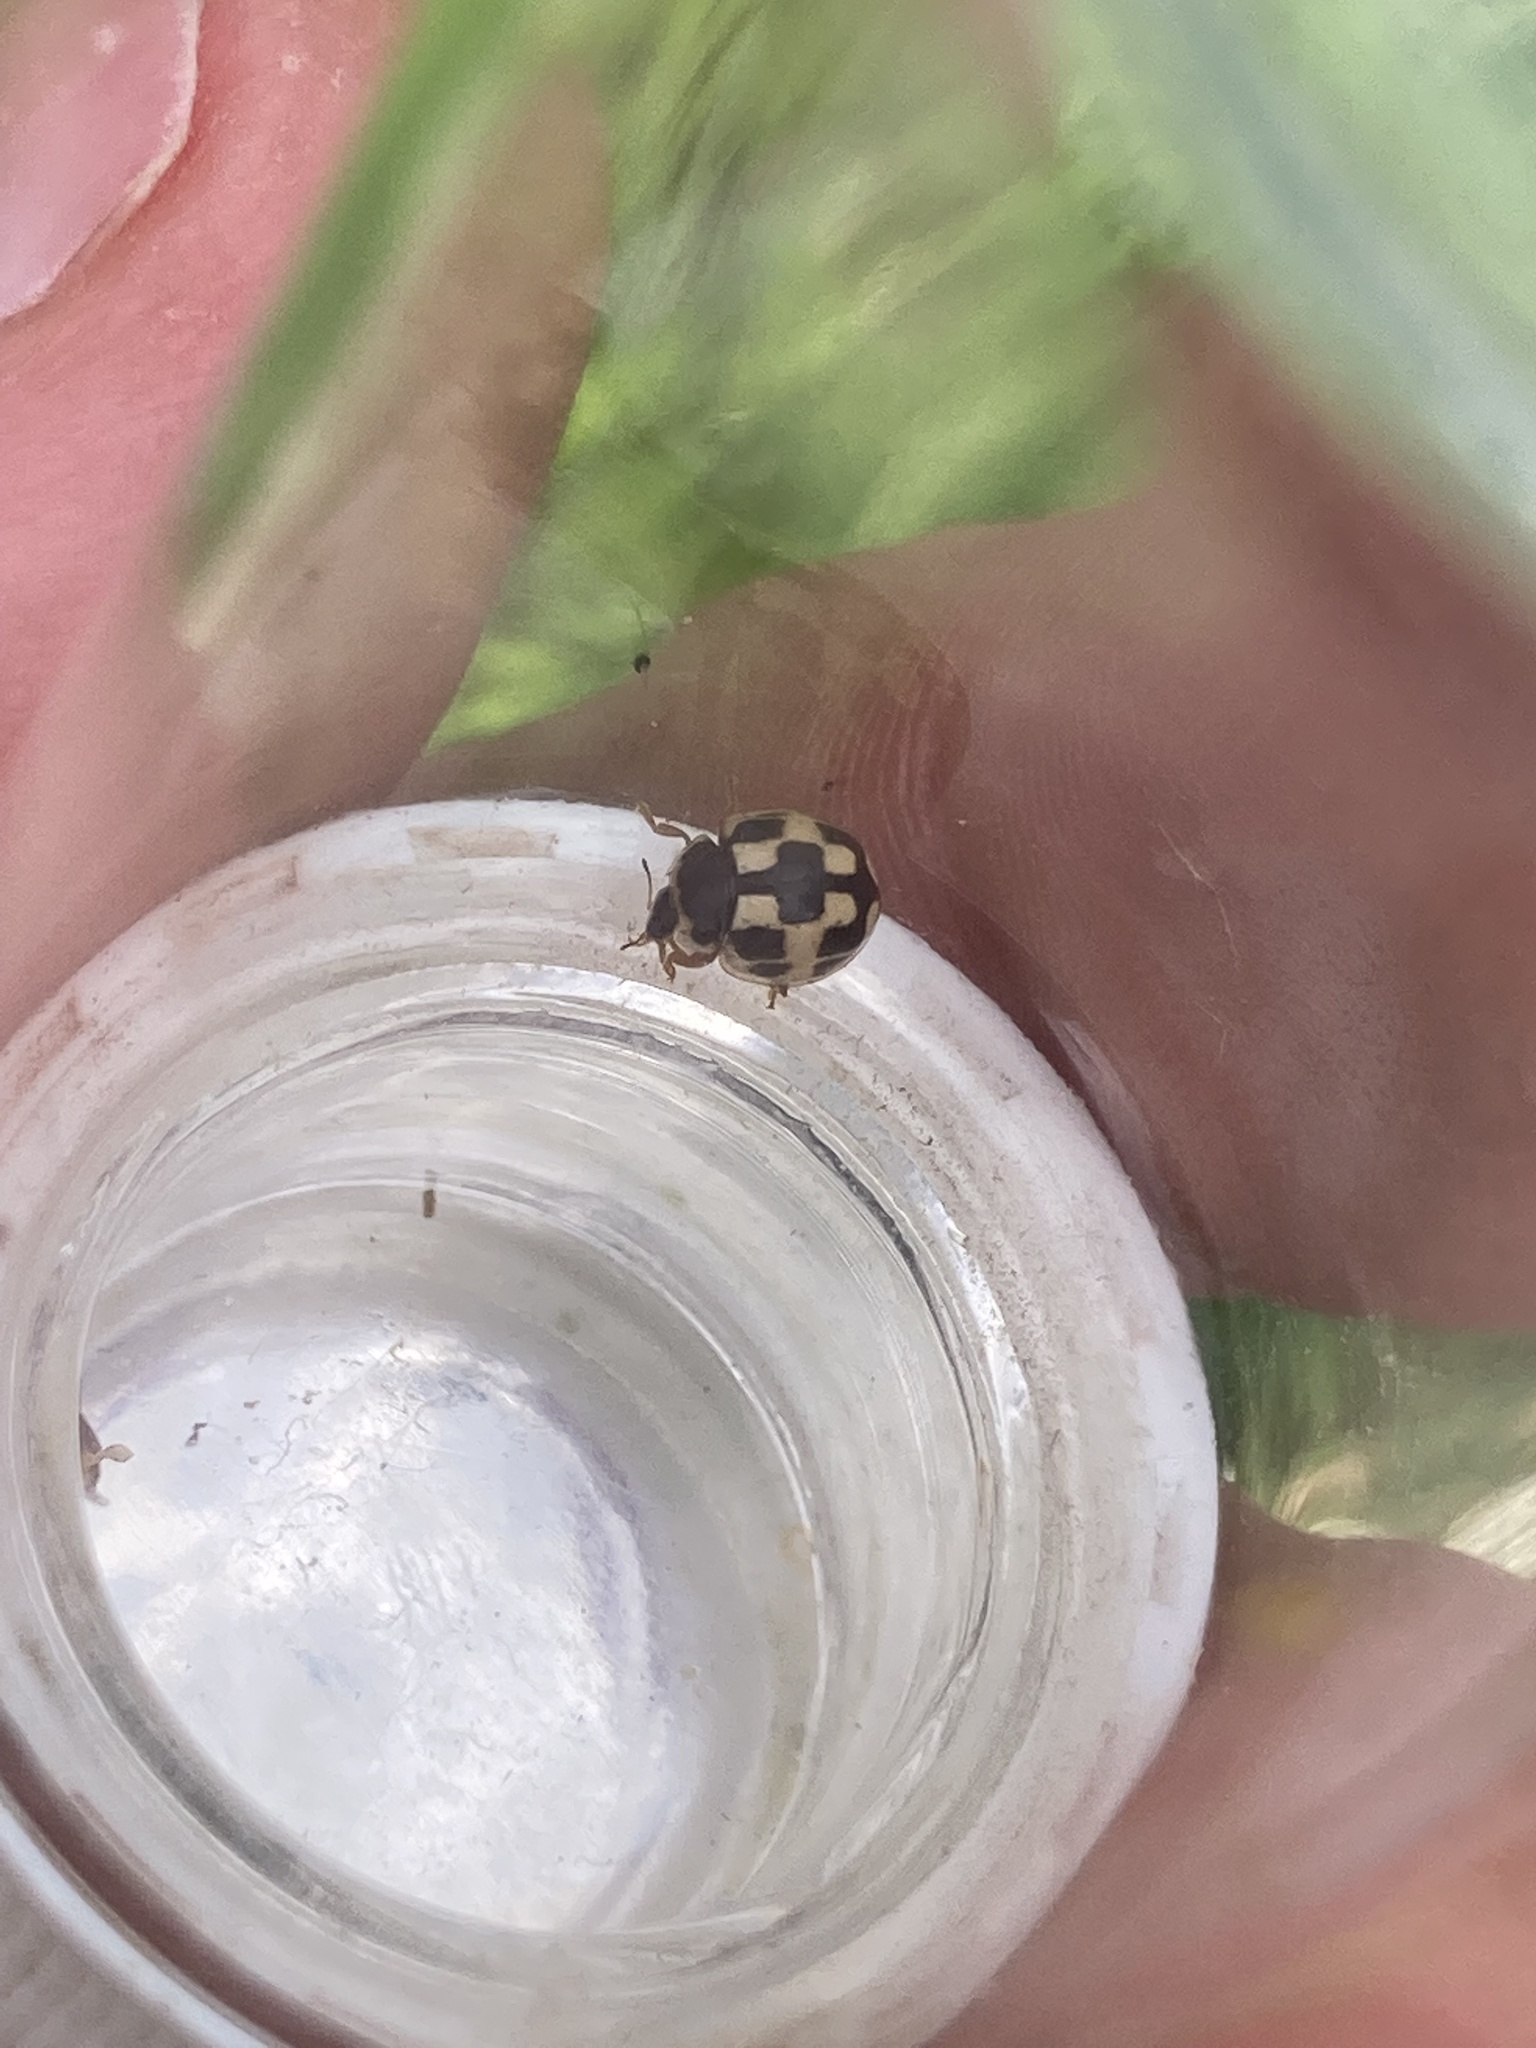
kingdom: Animalia
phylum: Arthropoda
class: Insecta
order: Coleoptera
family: Coccinellidae
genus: Propylaea
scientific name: Propylaea quatuordecimpunctata
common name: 14-spotted ladybird beetle
